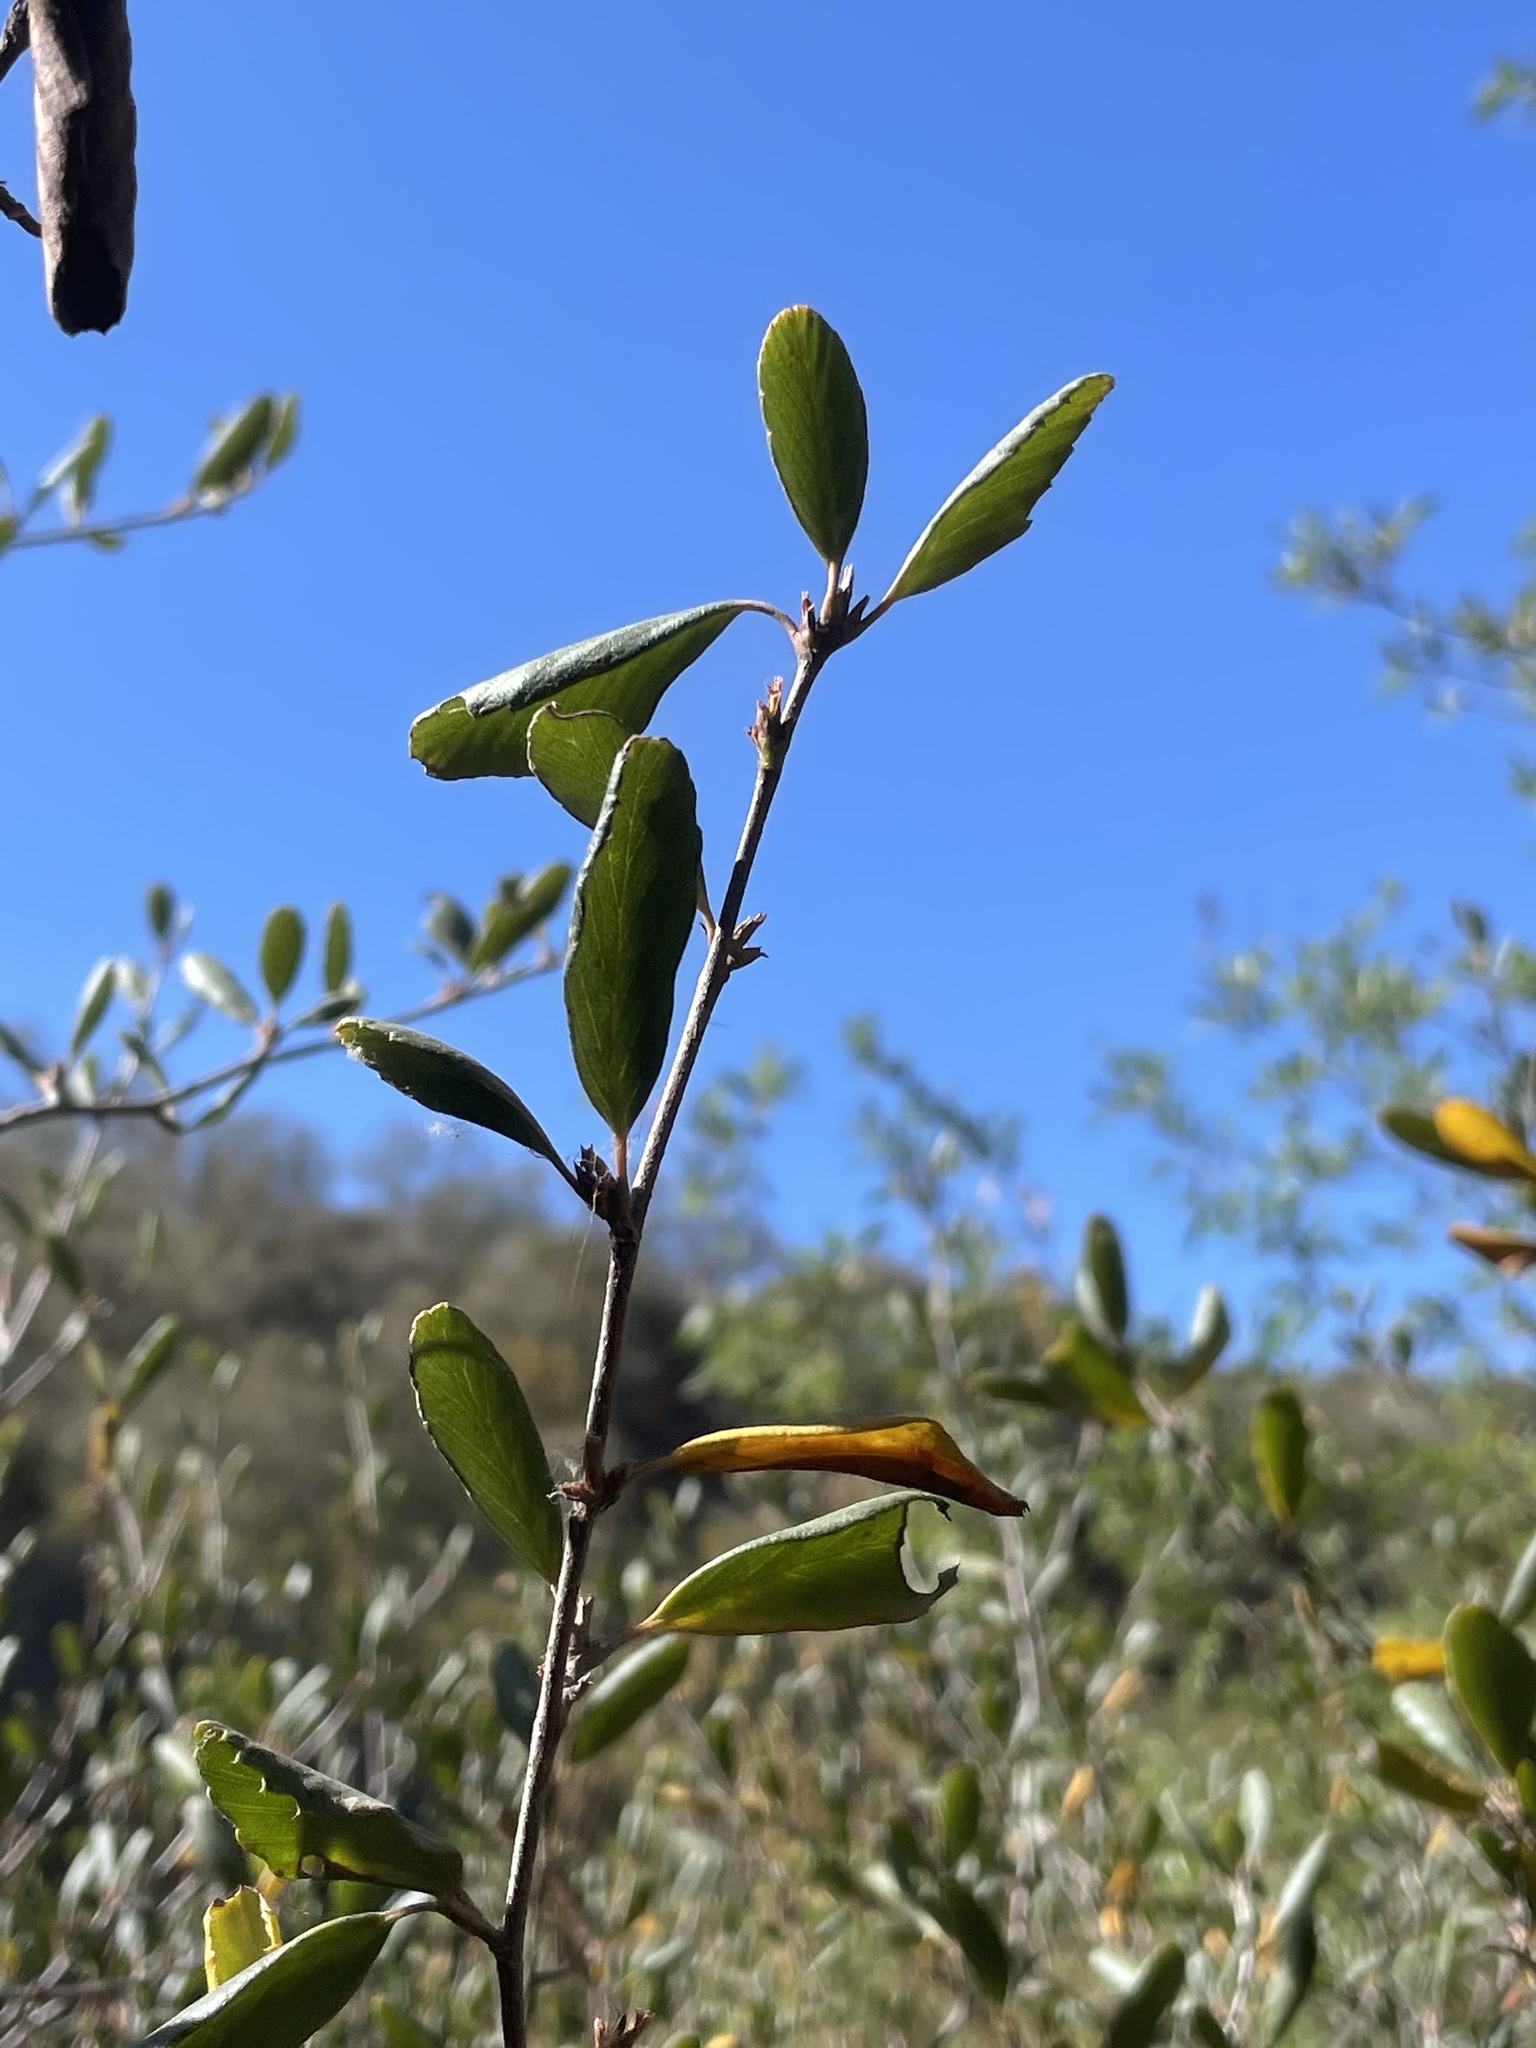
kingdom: Plantae
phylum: Tracheophyta
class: Magnoliopsida
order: Rosales
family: Rosaceae
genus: Cercocarpus
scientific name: Cercocarpus betuloides
